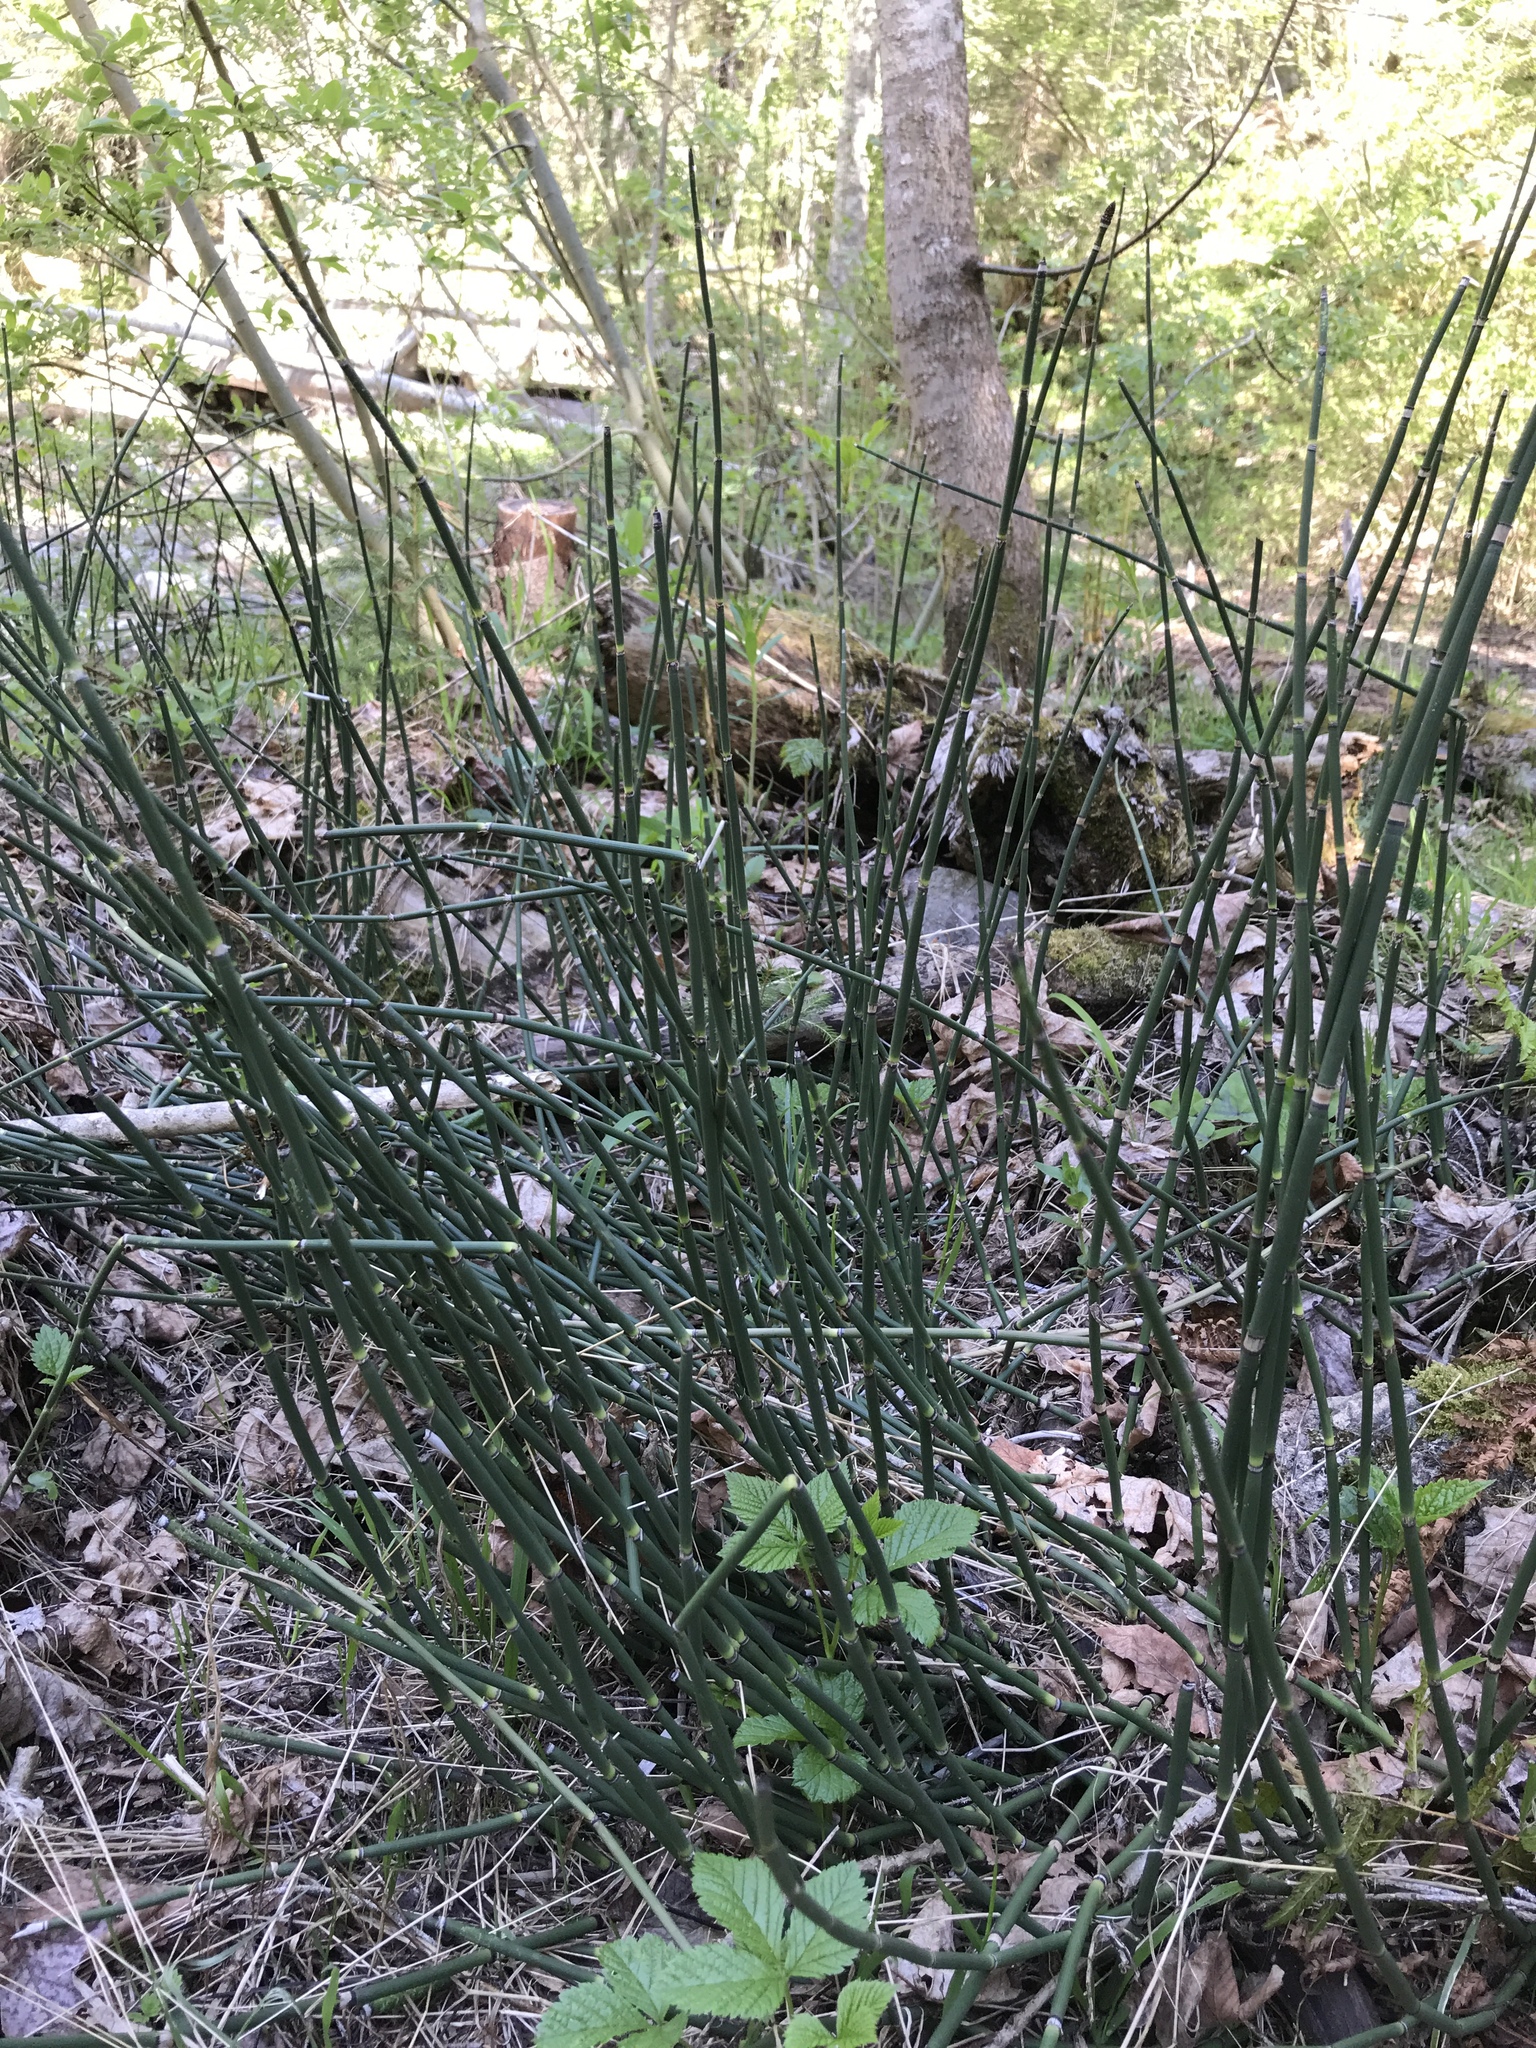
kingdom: Plantae
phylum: Tracheophyta
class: Polypodiopsida
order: Equisetales
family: Equisetaceae
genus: Equisetum
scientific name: Equisetum hyemale
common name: Rough horsetail
